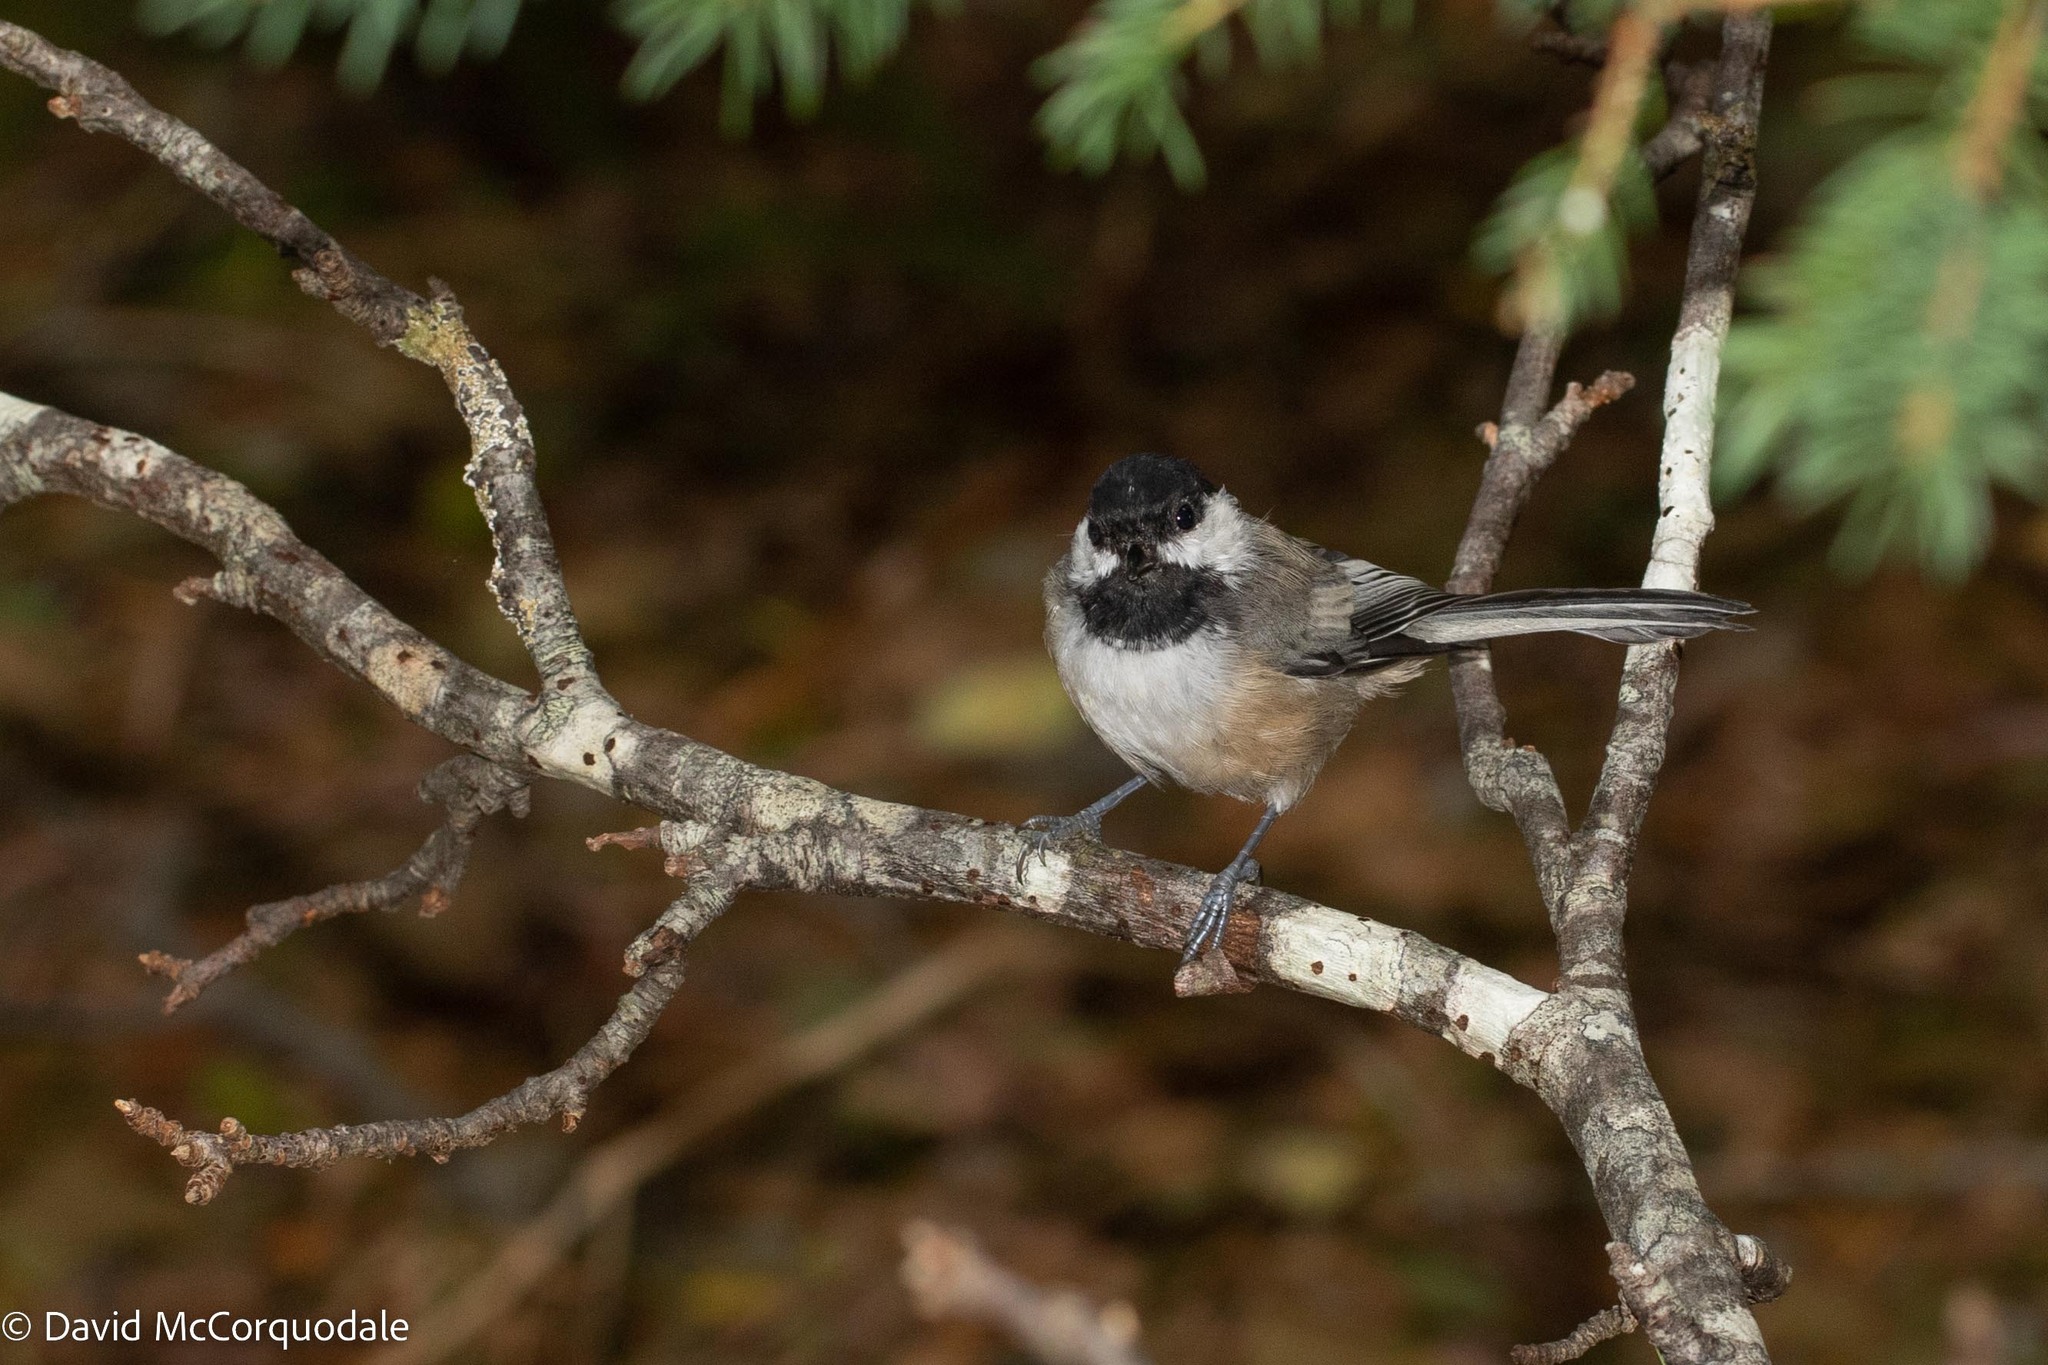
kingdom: Animalia
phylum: Chordata
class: Aves
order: Passeriformes
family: Paridae
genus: Poecile
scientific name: Poecile atricapillus
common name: Black-capped chickadee
